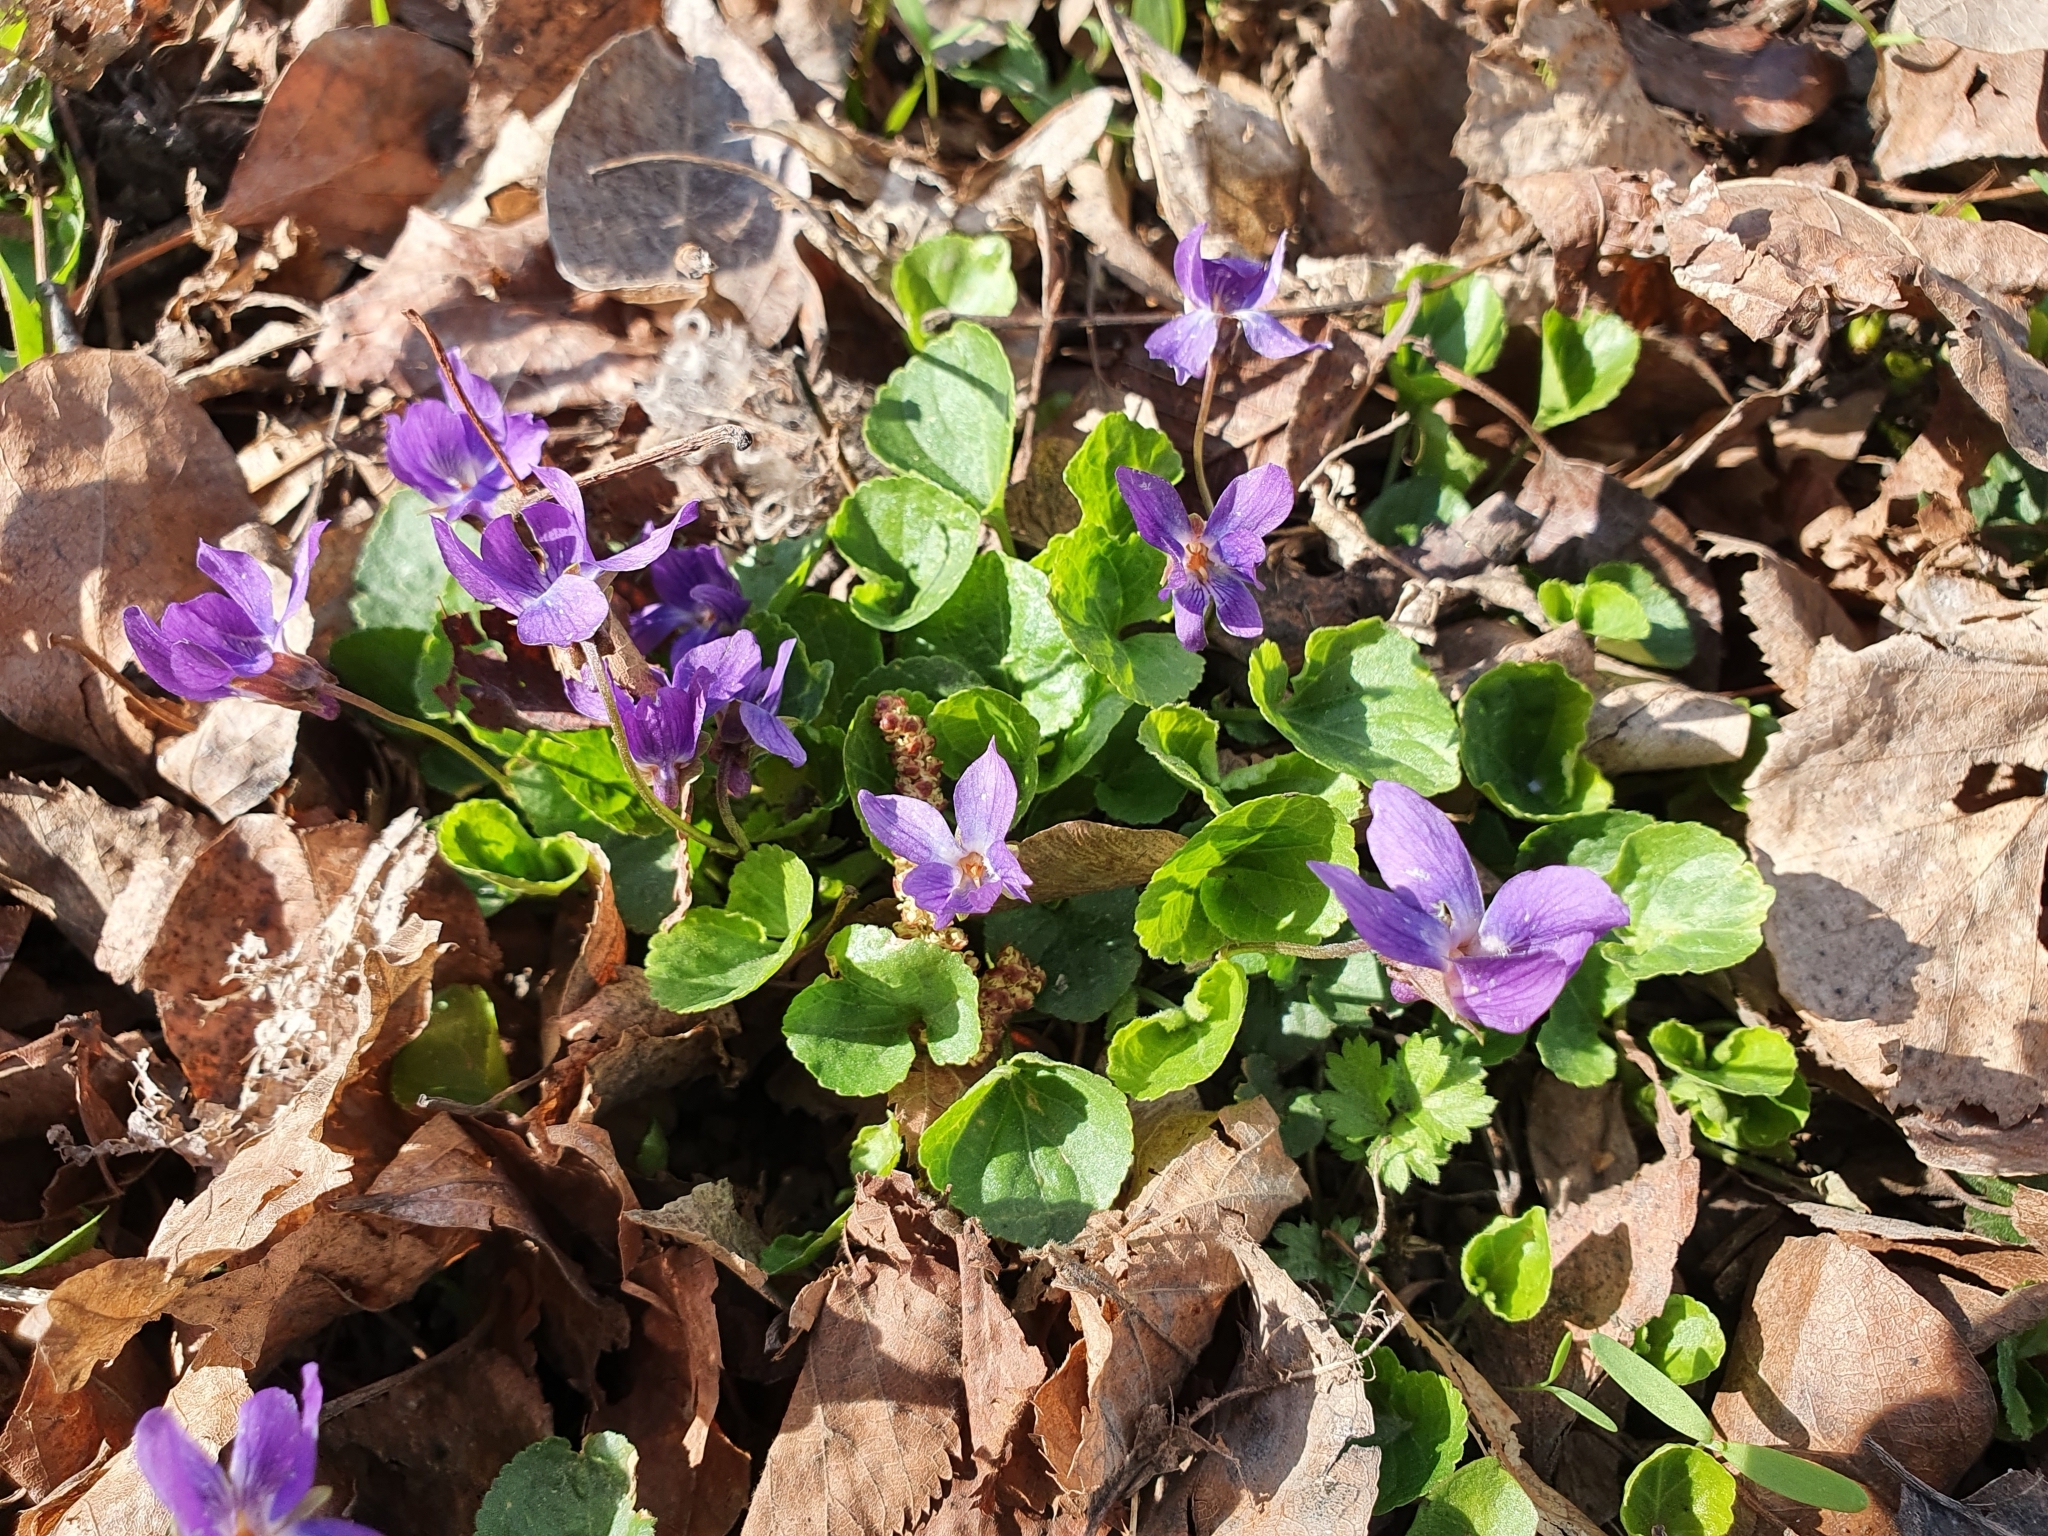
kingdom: Plantae
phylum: Tracheophyta
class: Magnoliopsida
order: Malpighiales
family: Violaceae
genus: Viola
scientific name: Viola odorata
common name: Sweet violet
